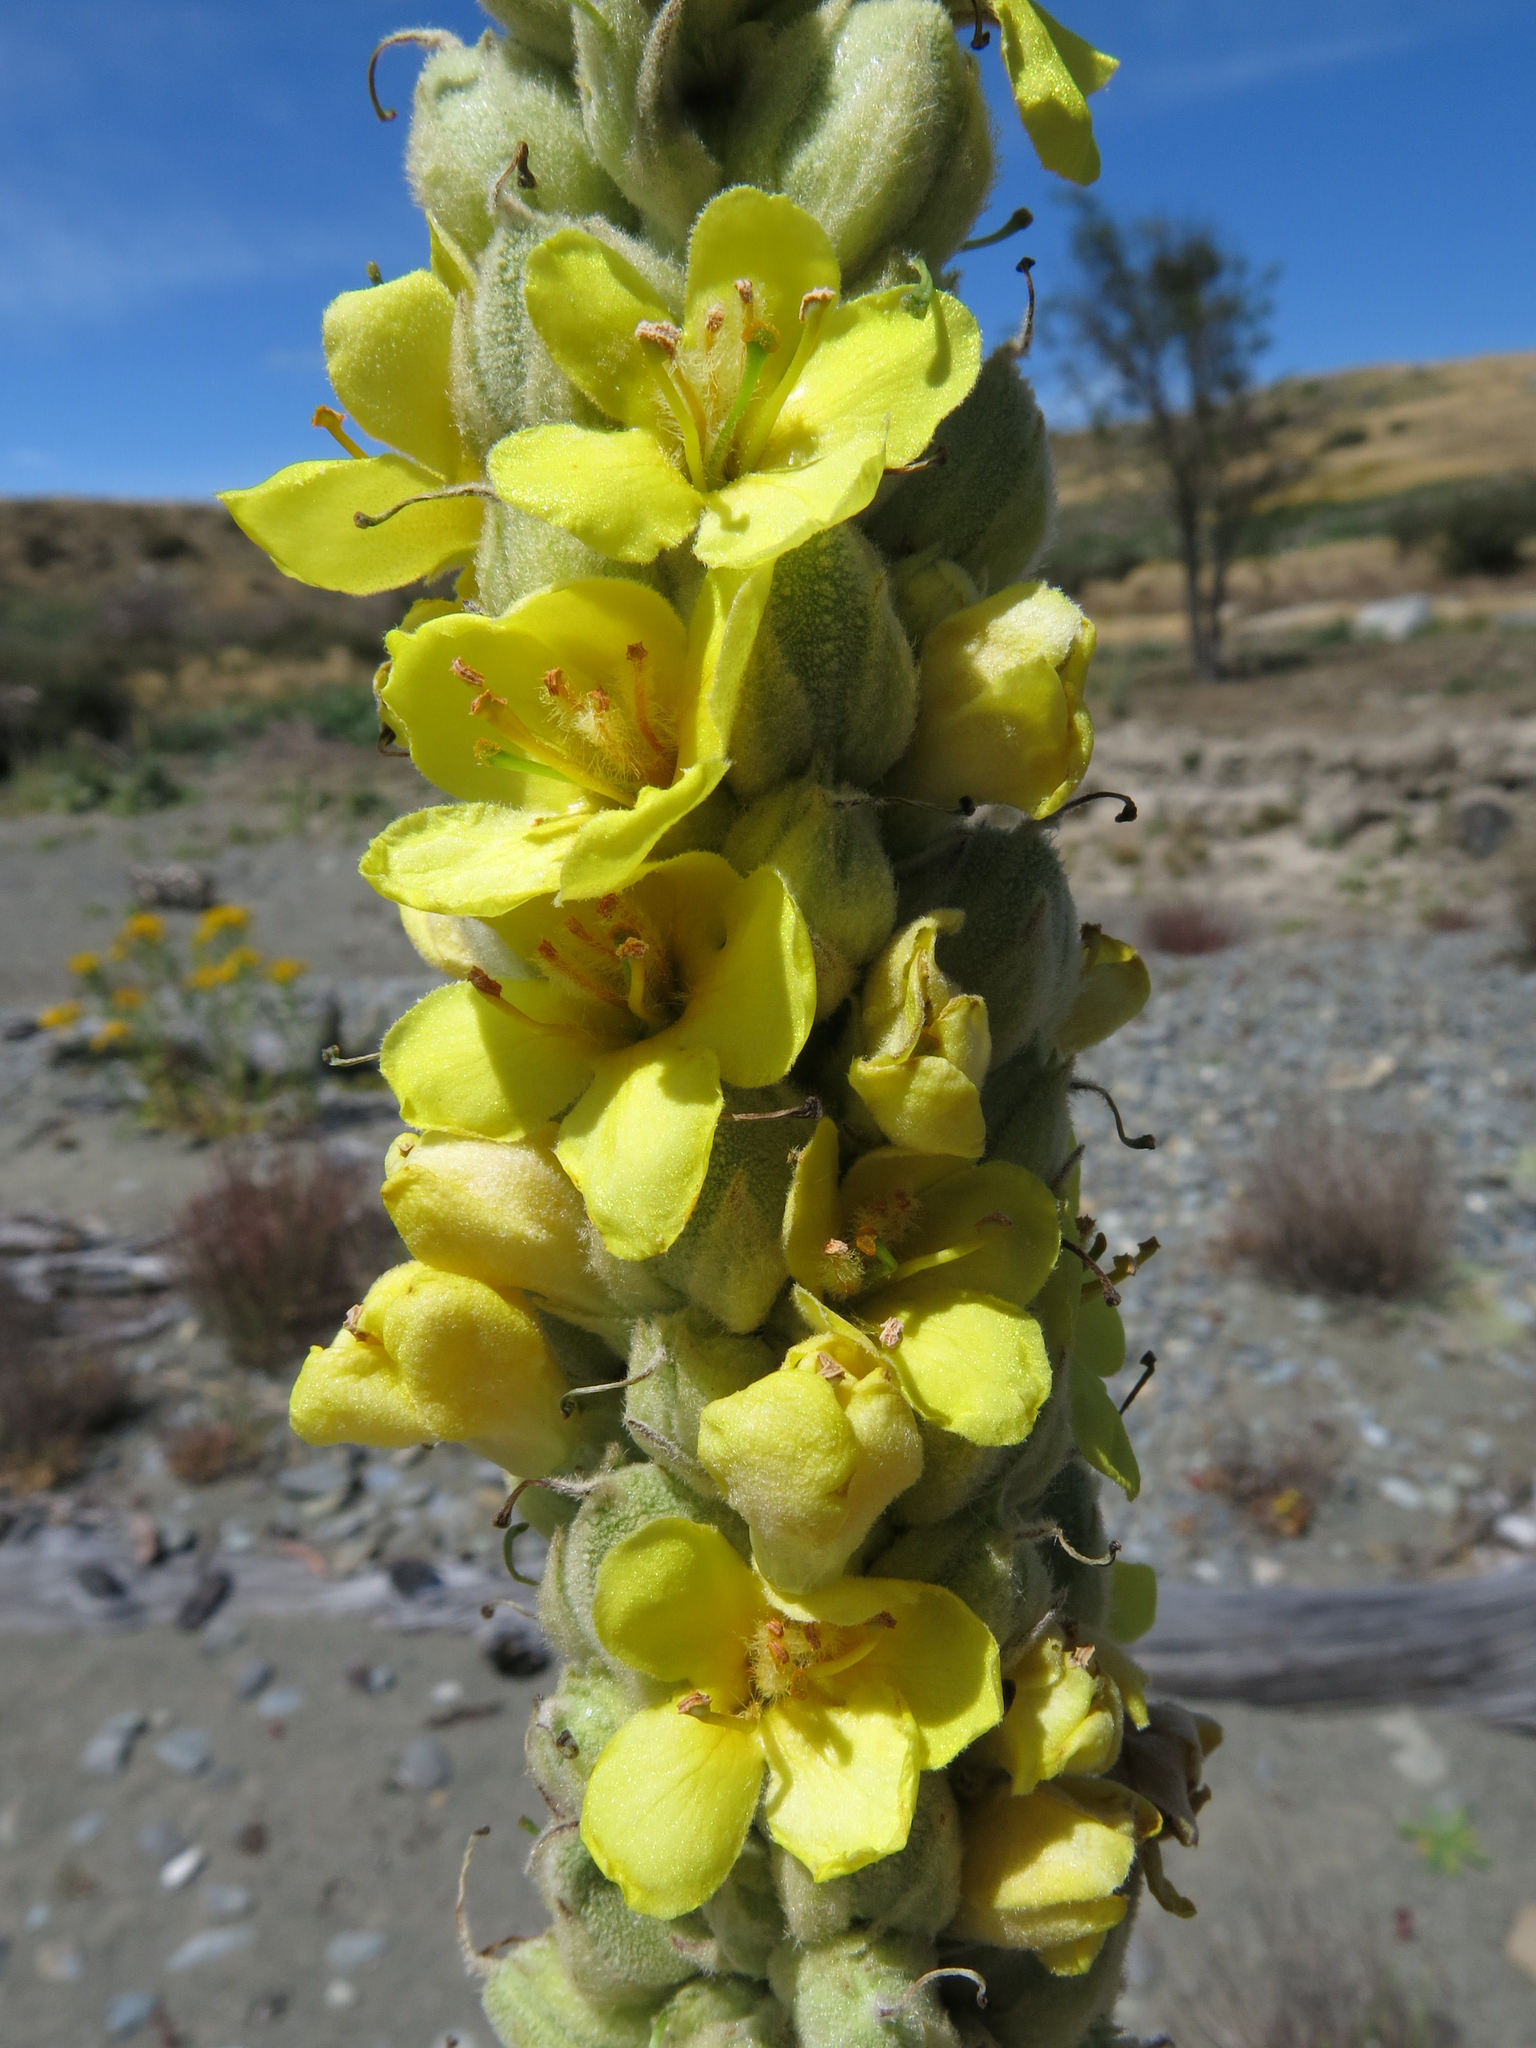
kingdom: Plantae
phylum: Tracheophyta
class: Magnoliopsida
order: Lamiales
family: Scrophulariaceae
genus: Verbascum
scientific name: Verbascum thapsus
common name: Common mullein
